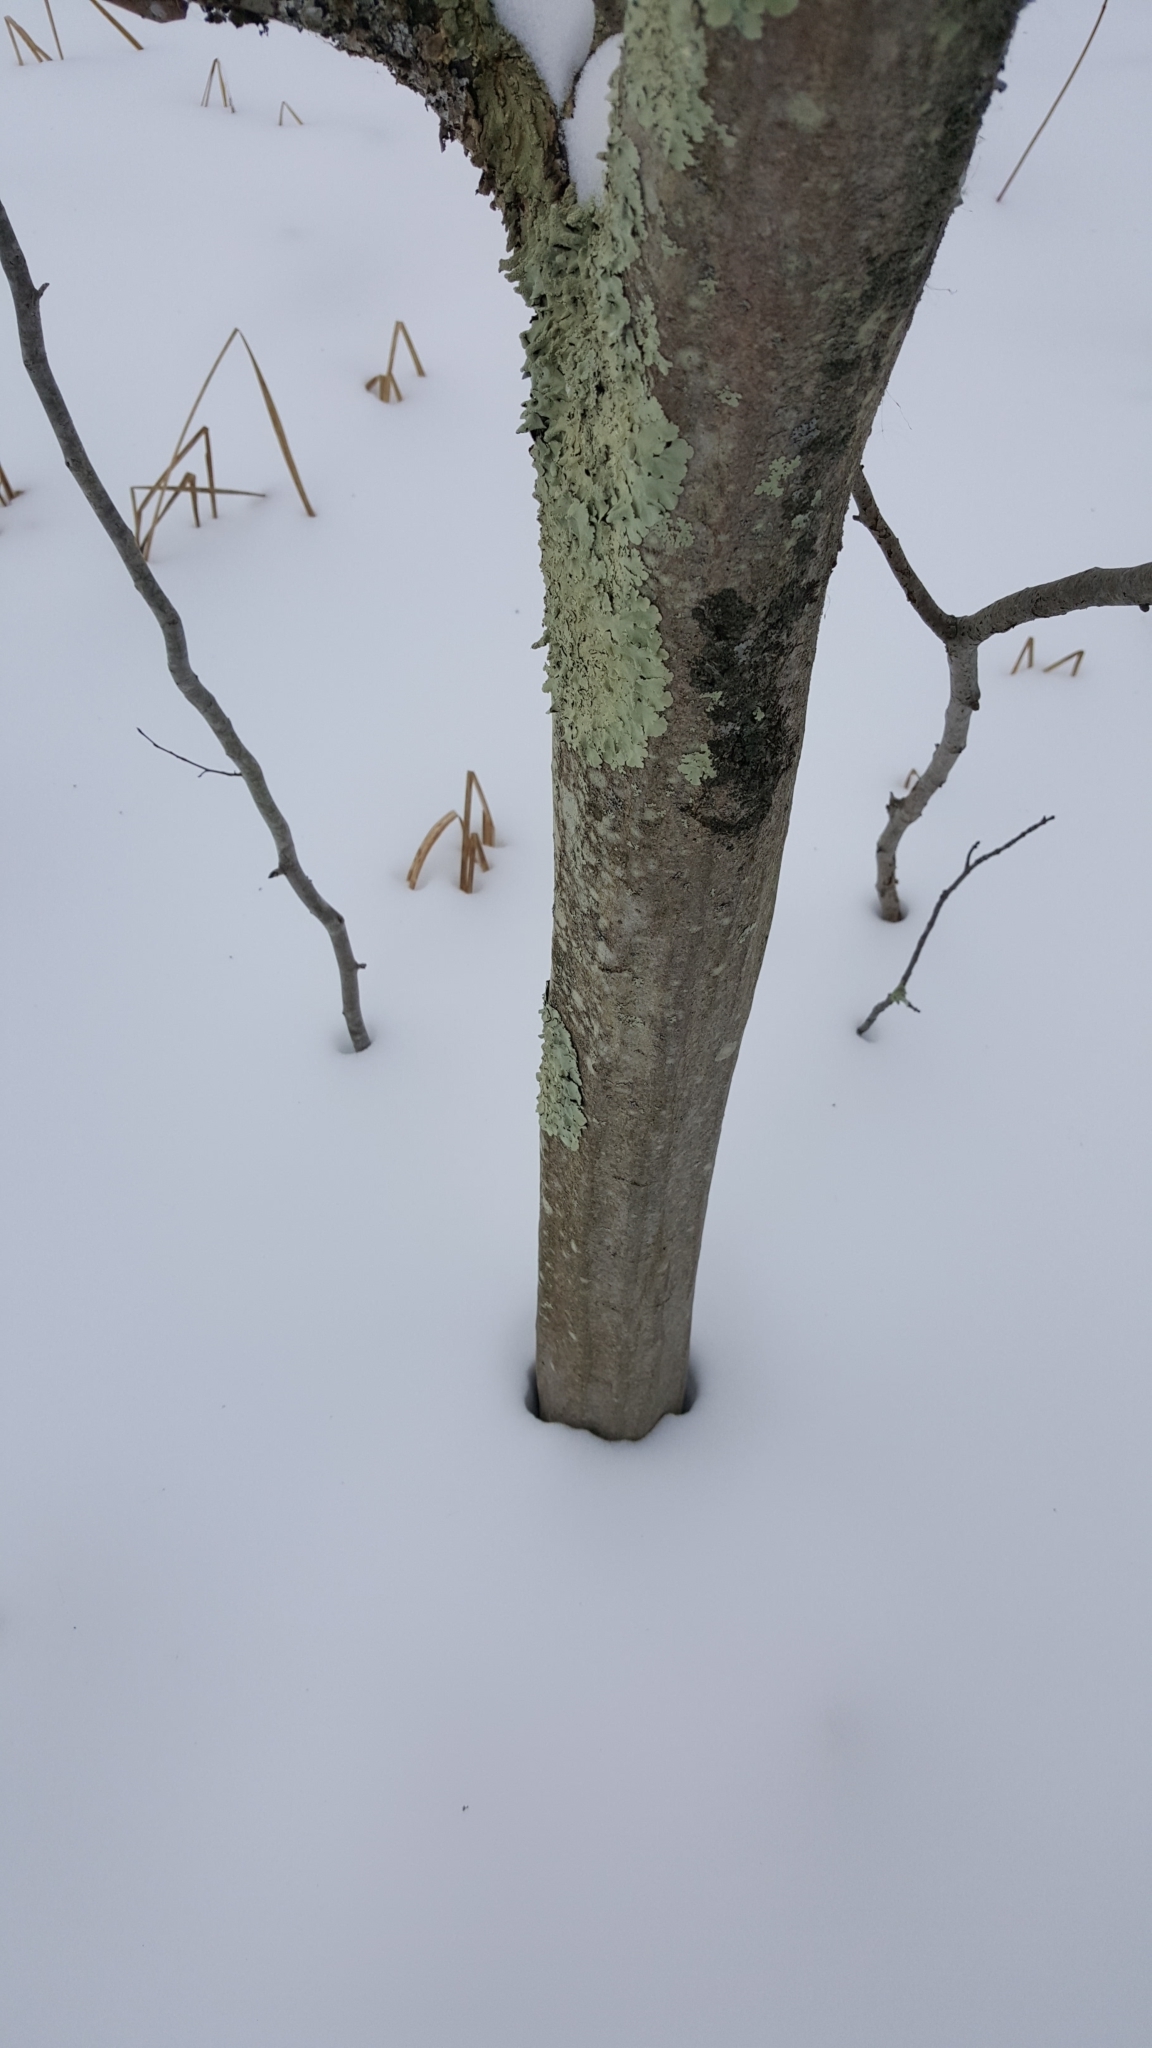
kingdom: Plantae
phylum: Tracheophyta
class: Magnoliopsida
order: Fagales
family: Betulaceae
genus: Carpinus
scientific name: Carpinus caroliniana
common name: American hornbeam
